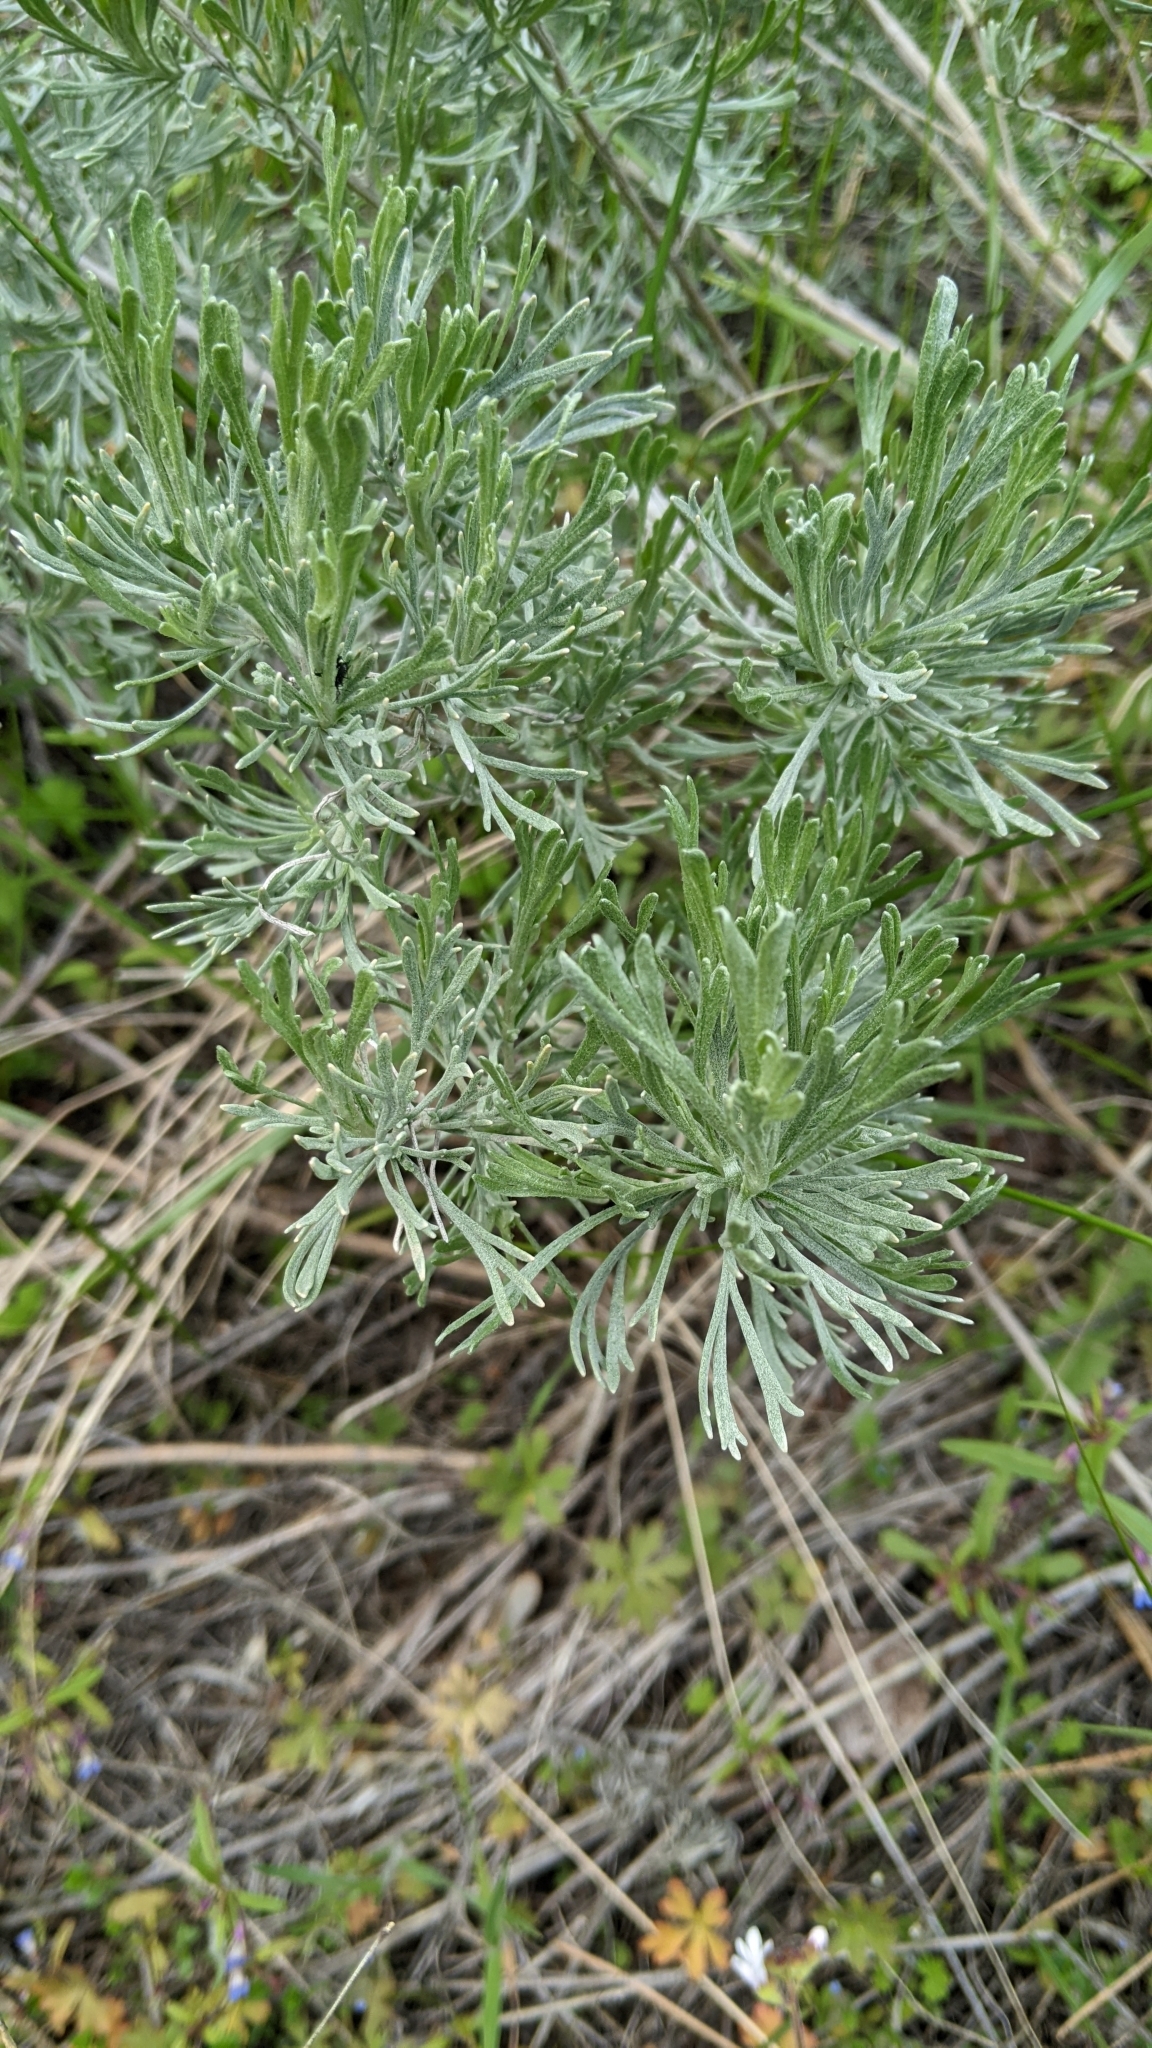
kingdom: Plantae
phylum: Tracheophyta
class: Magnoliopsida
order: Asterales
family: Asteraceae
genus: Artemisia
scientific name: Artemisia tripartita
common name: Three-tip sagebrush
